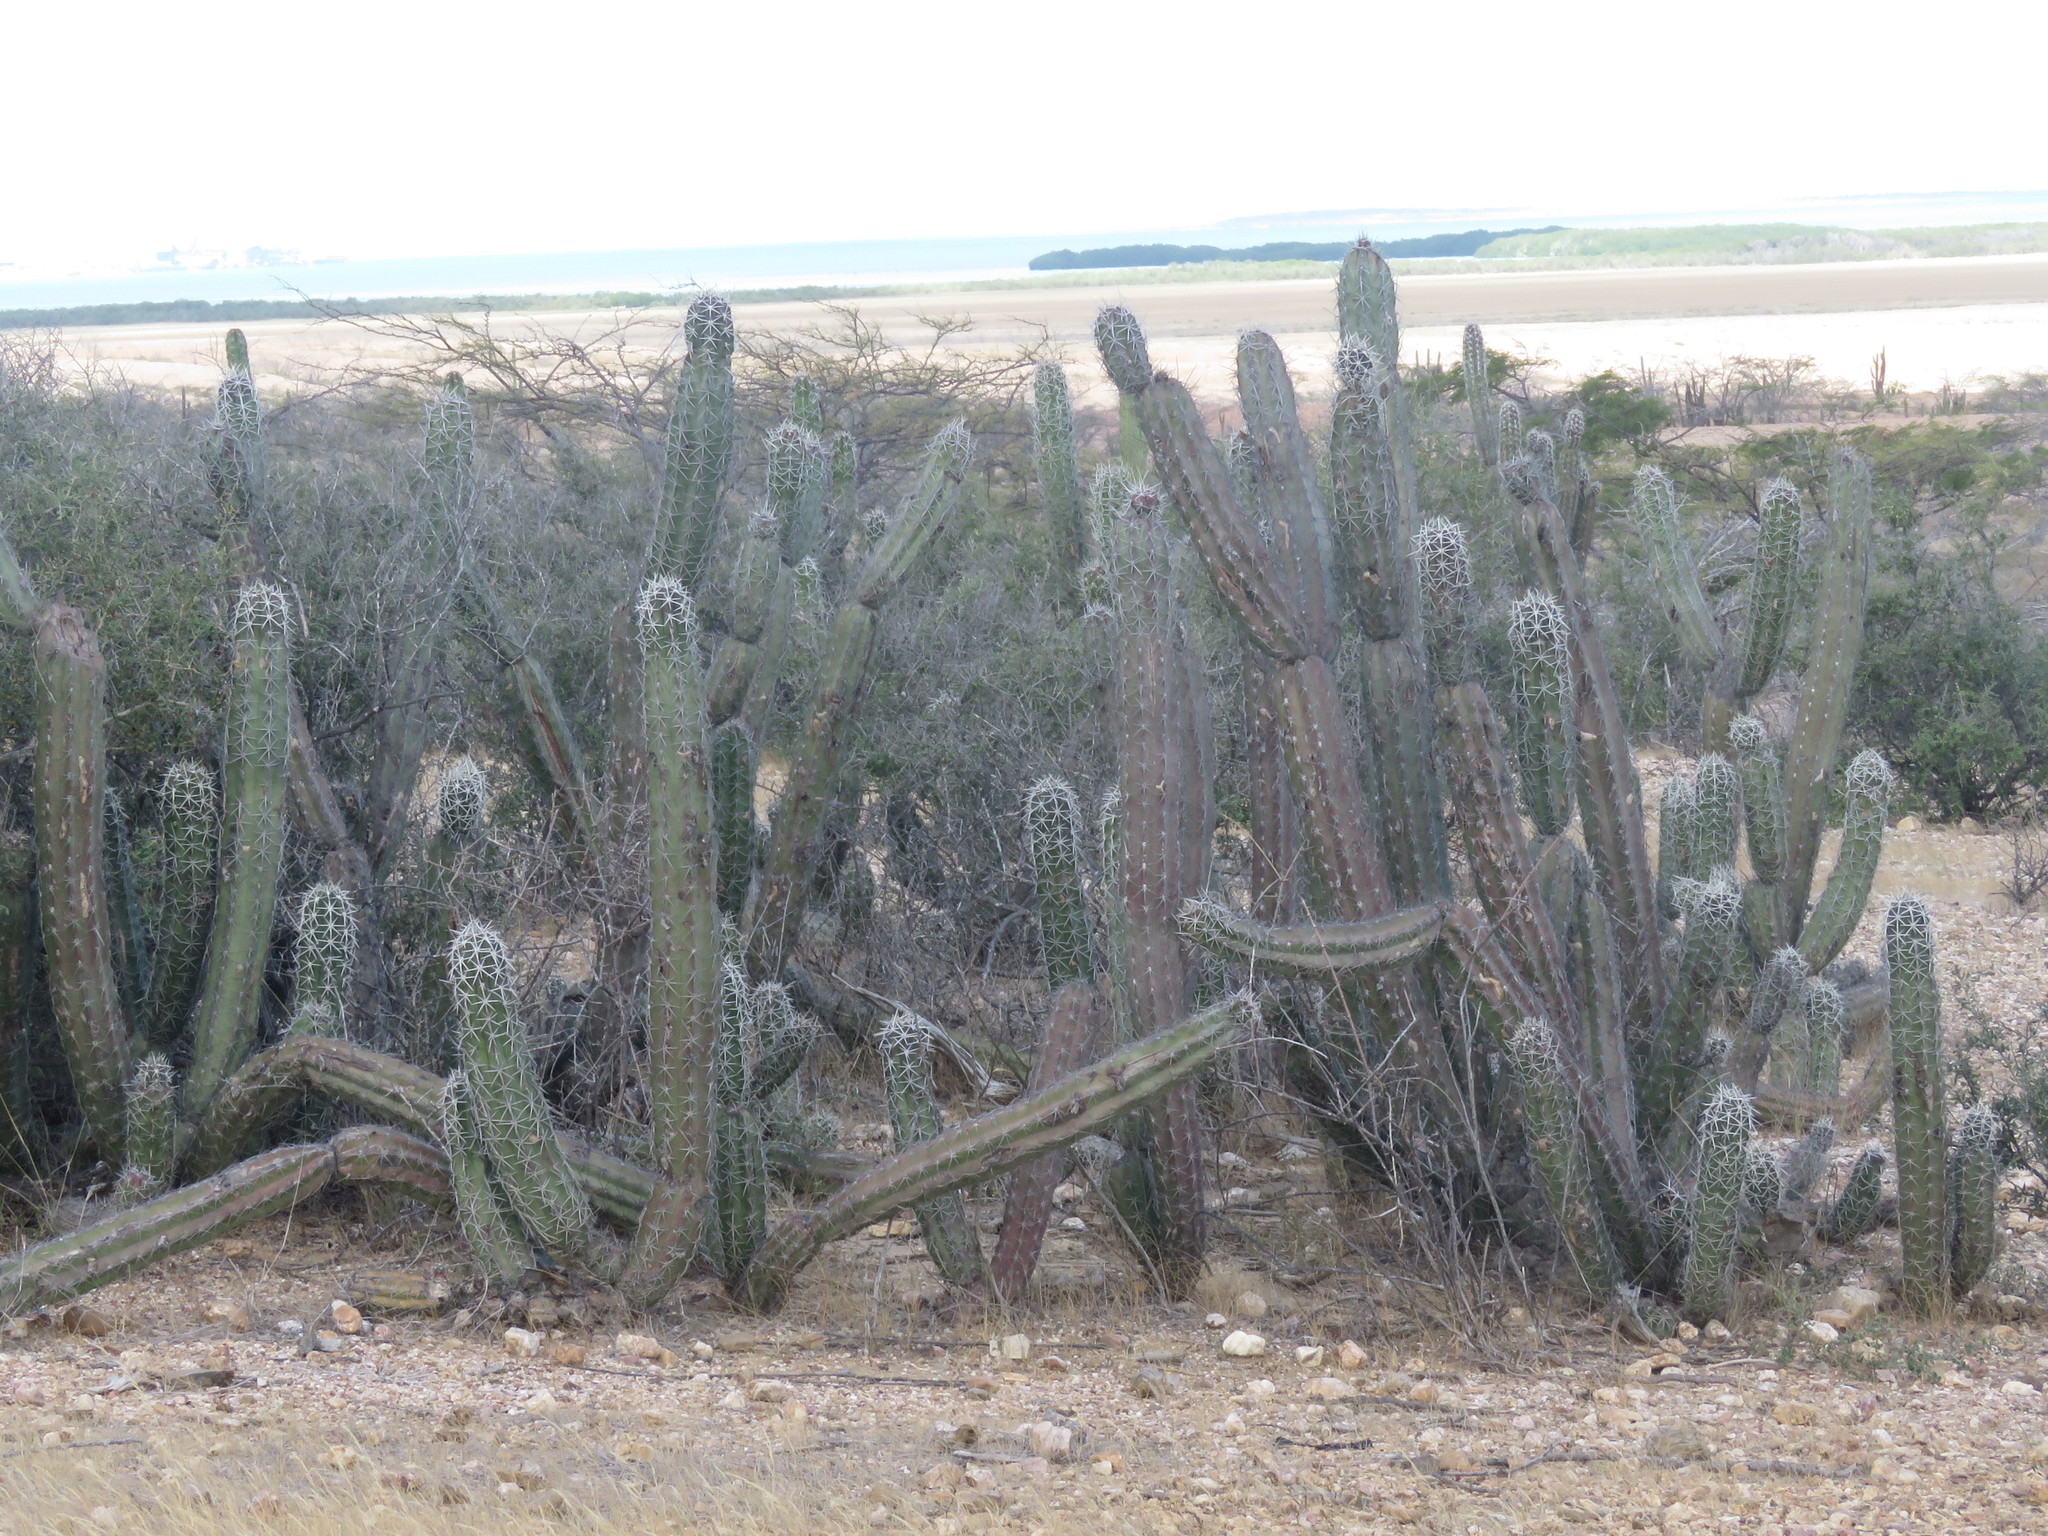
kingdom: Plantae
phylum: Tracheophyta
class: Magnoliopsida
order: Caryophyllales
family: Cactaceae
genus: Stenocereus
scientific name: Stenocereus griseus
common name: Tall candelabra cactus
